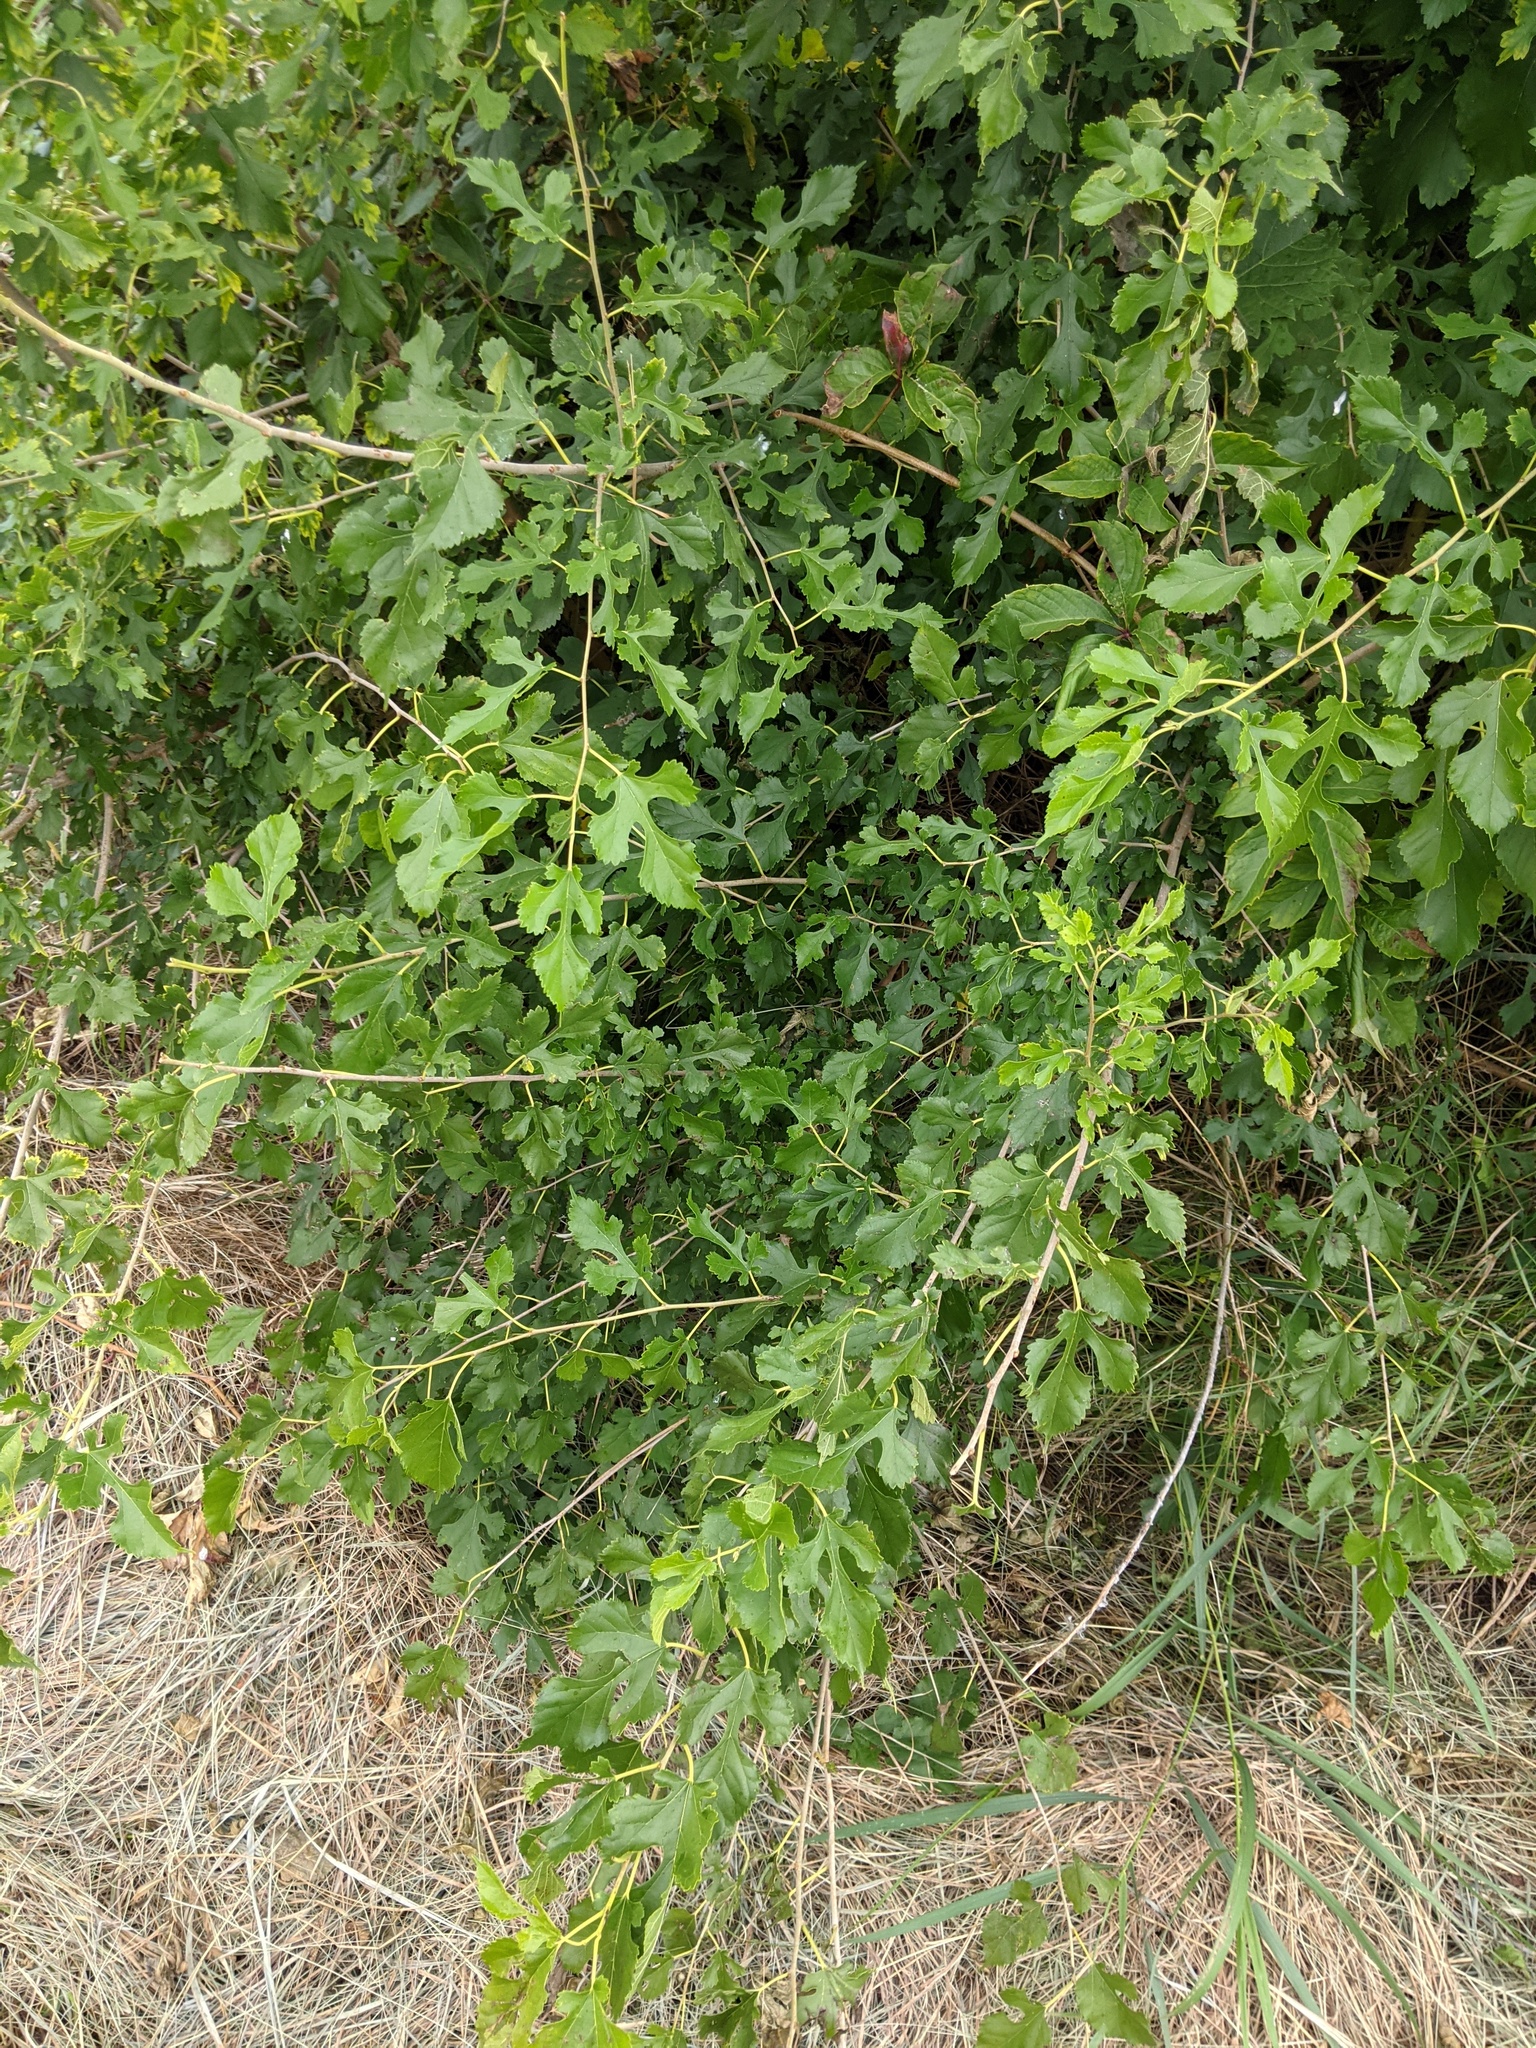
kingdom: Plantae
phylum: Tracheophyta
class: Magnoliopsida
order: Rosales
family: Moraceae
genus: Morus
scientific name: Morus alba
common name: White mulberry
